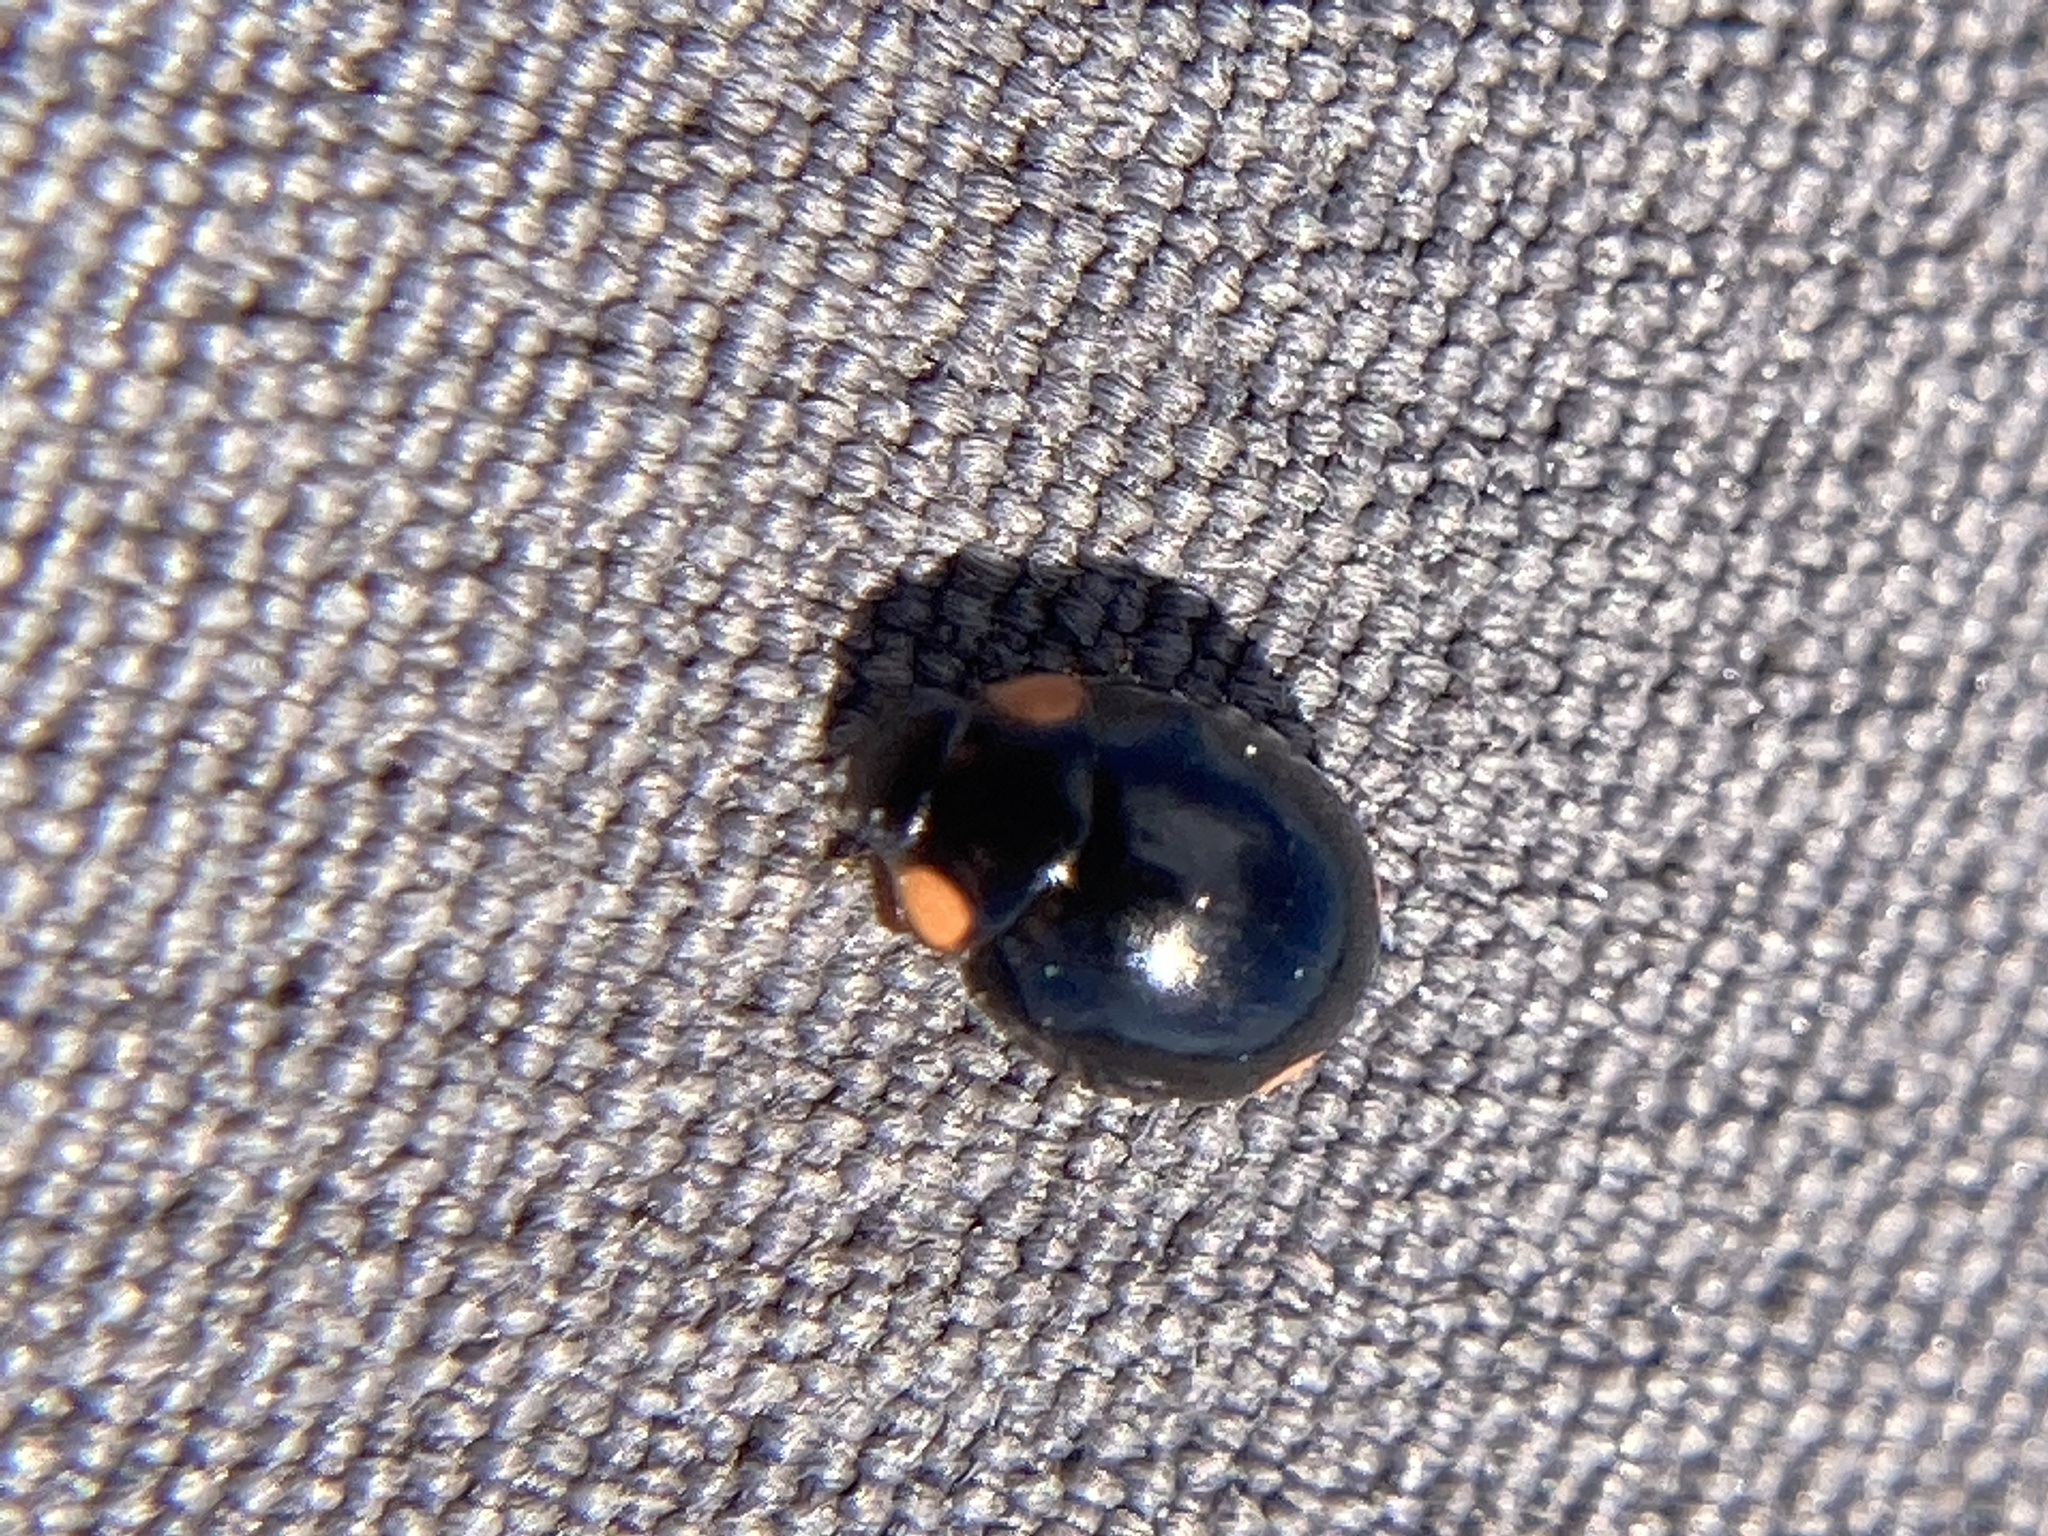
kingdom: Animalia
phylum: Arthropoda
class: Insecta
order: Coleoptera
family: Coccinellidae
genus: Hyperaspis
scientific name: Hyperaspis bigeminata
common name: Bigeminate sigil lady beetle
